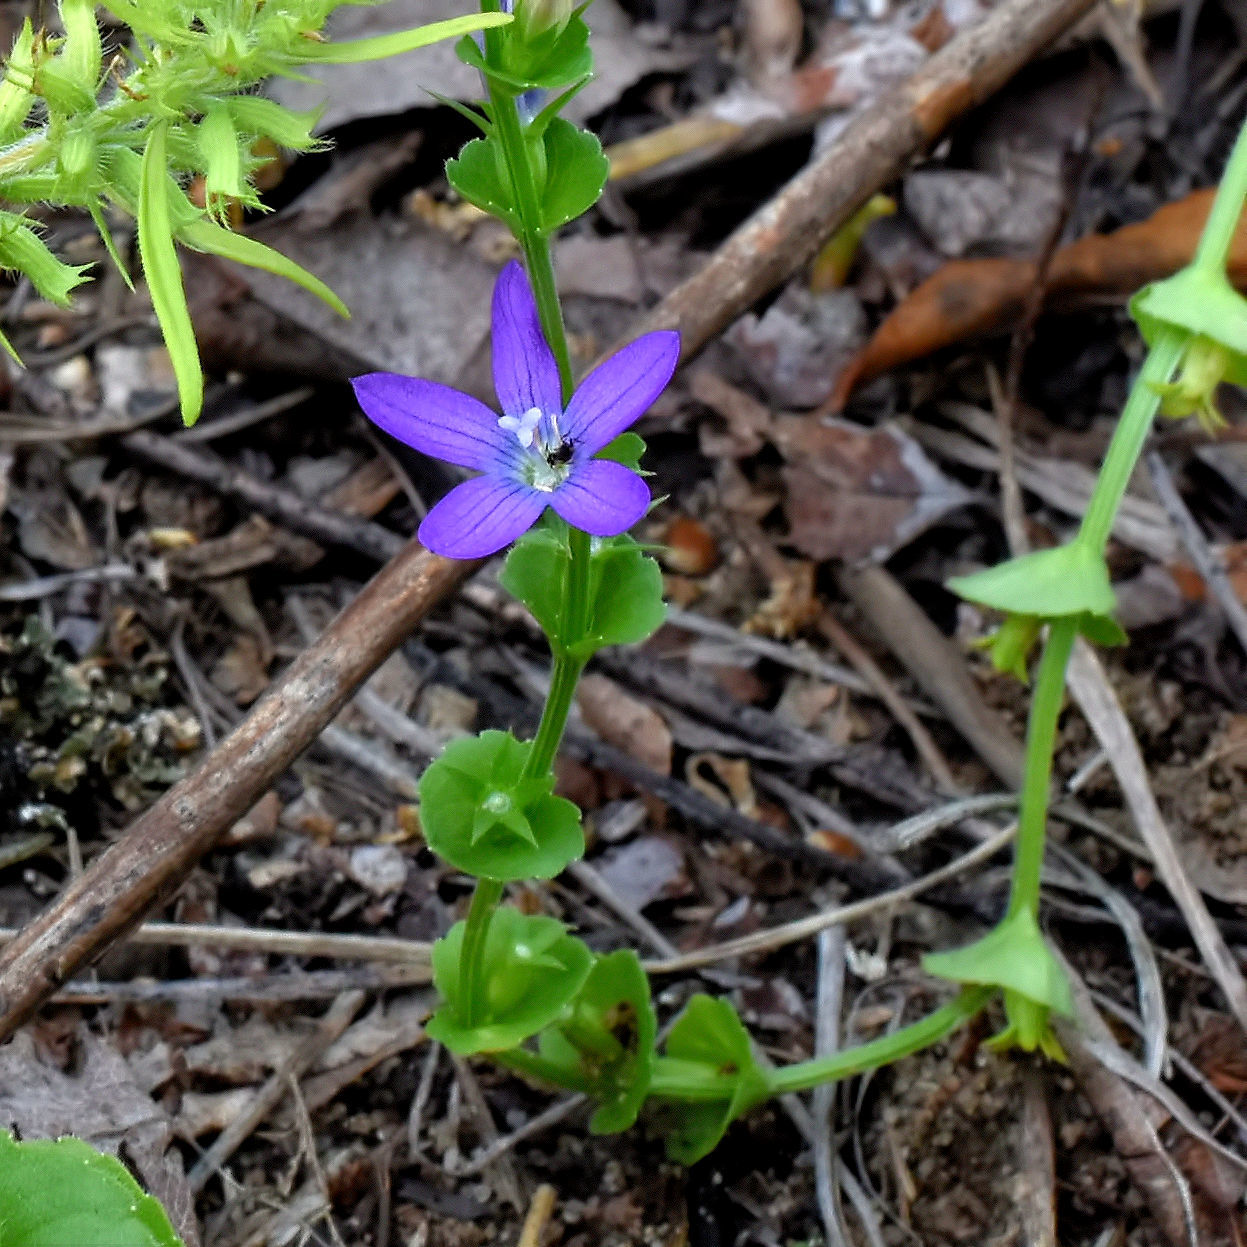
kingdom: Plantae
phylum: Tracheophyta
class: Magnoliopsida
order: Asterales
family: Campanulaceae
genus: Triodanis
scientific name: Triodanis perfoliata
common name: Clasping venus' looking-glass
